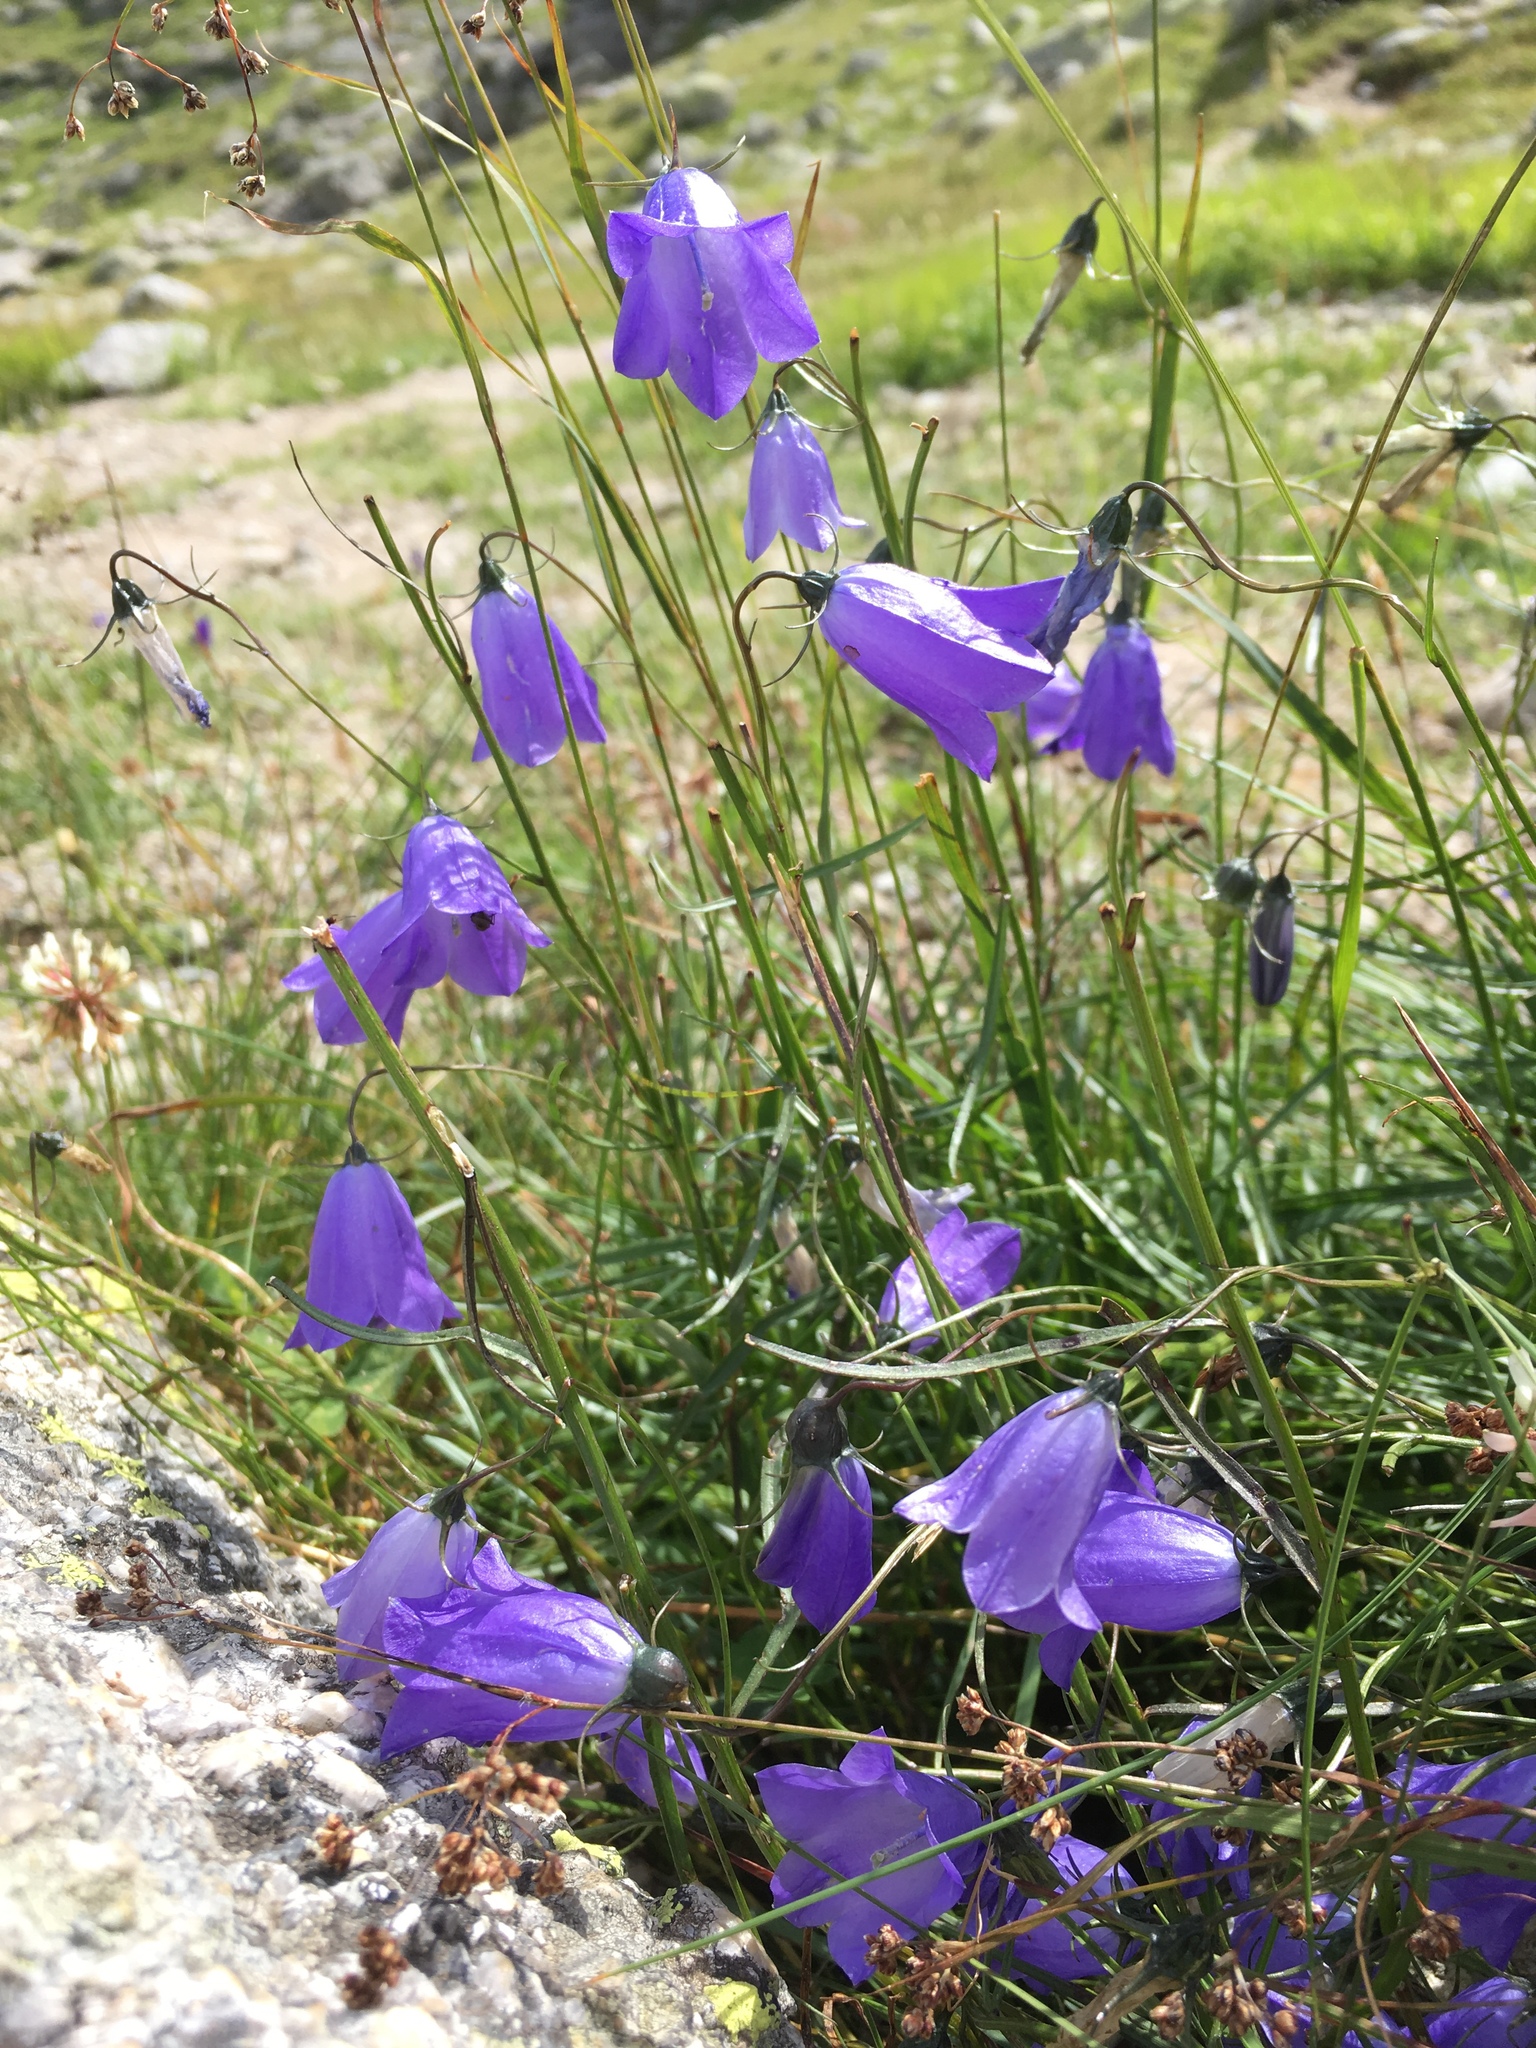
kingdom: Plantae
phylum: Tracheophyta
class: Magnoliopsida
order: Asterales
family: Campanulaceae
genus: Campanula
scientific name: Campanula rotundifolia
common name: Harebell
